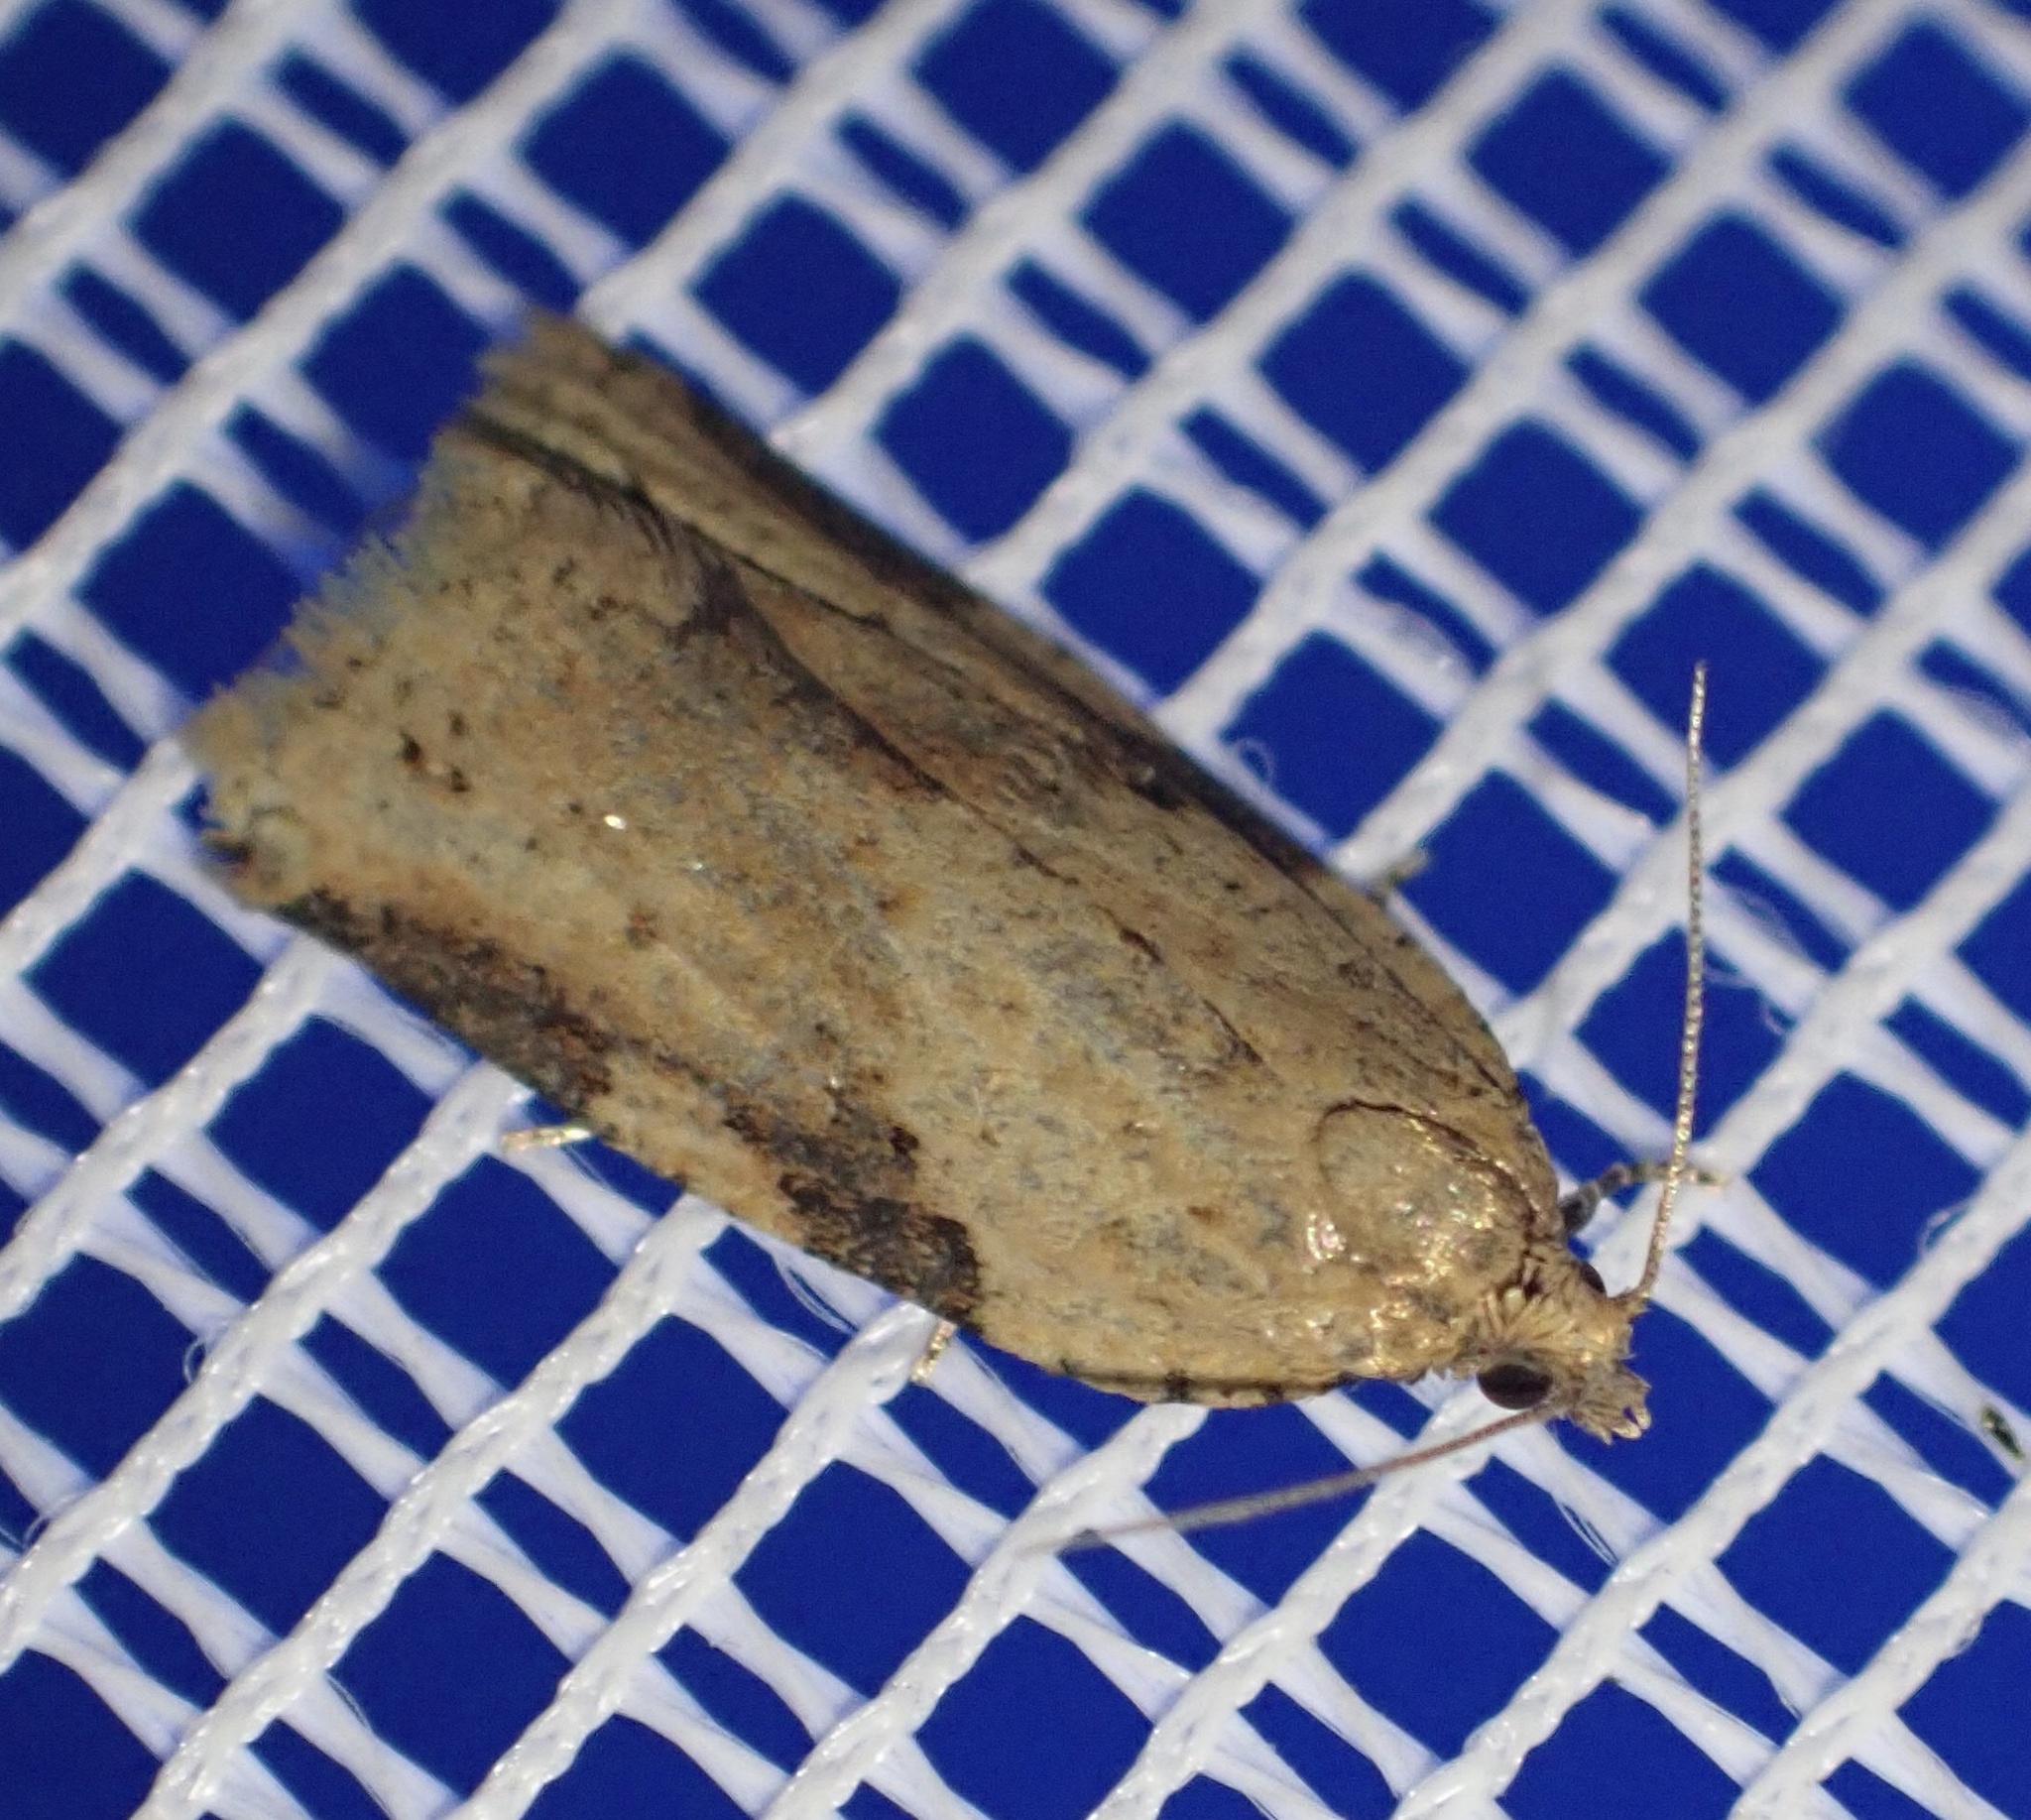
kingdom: Animalia
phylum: Arthropoda
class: Insecta
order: Lepidoptera
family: Tortricidae
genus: Clepsis
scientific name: Clepsis spectrana
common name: Cyclamen tortrix
